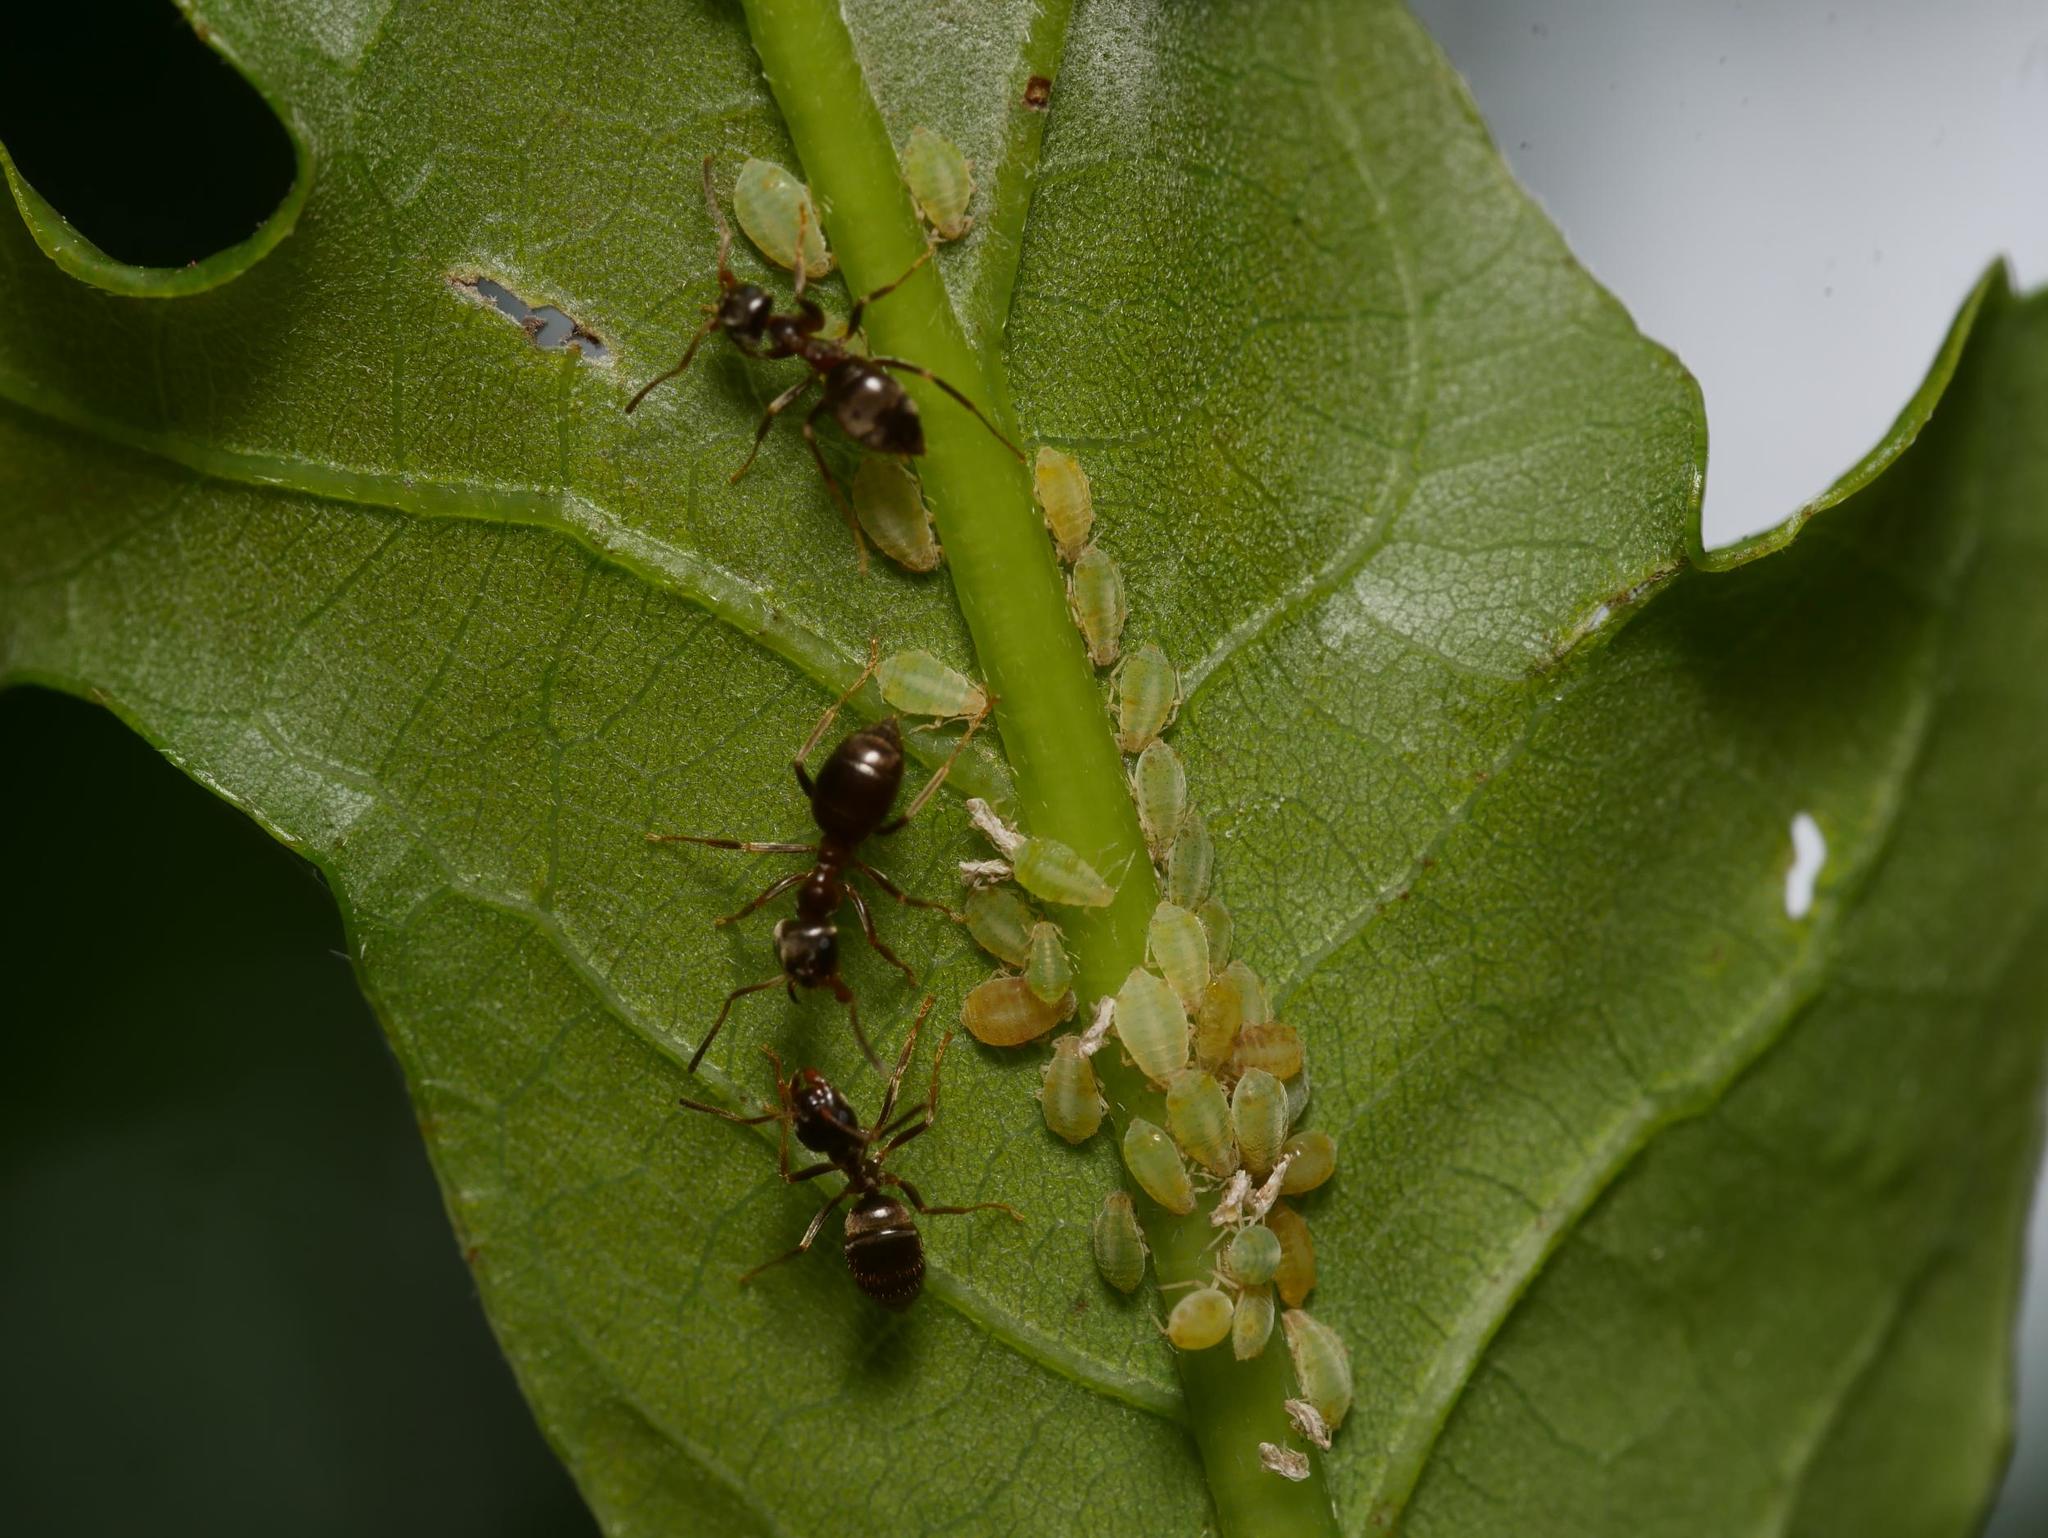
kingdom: Animalia
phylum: Arthropoda
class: Insecta
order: Hemiptera
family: Aphididae
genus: Thelaxes
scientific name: Thelaxes dryophila
